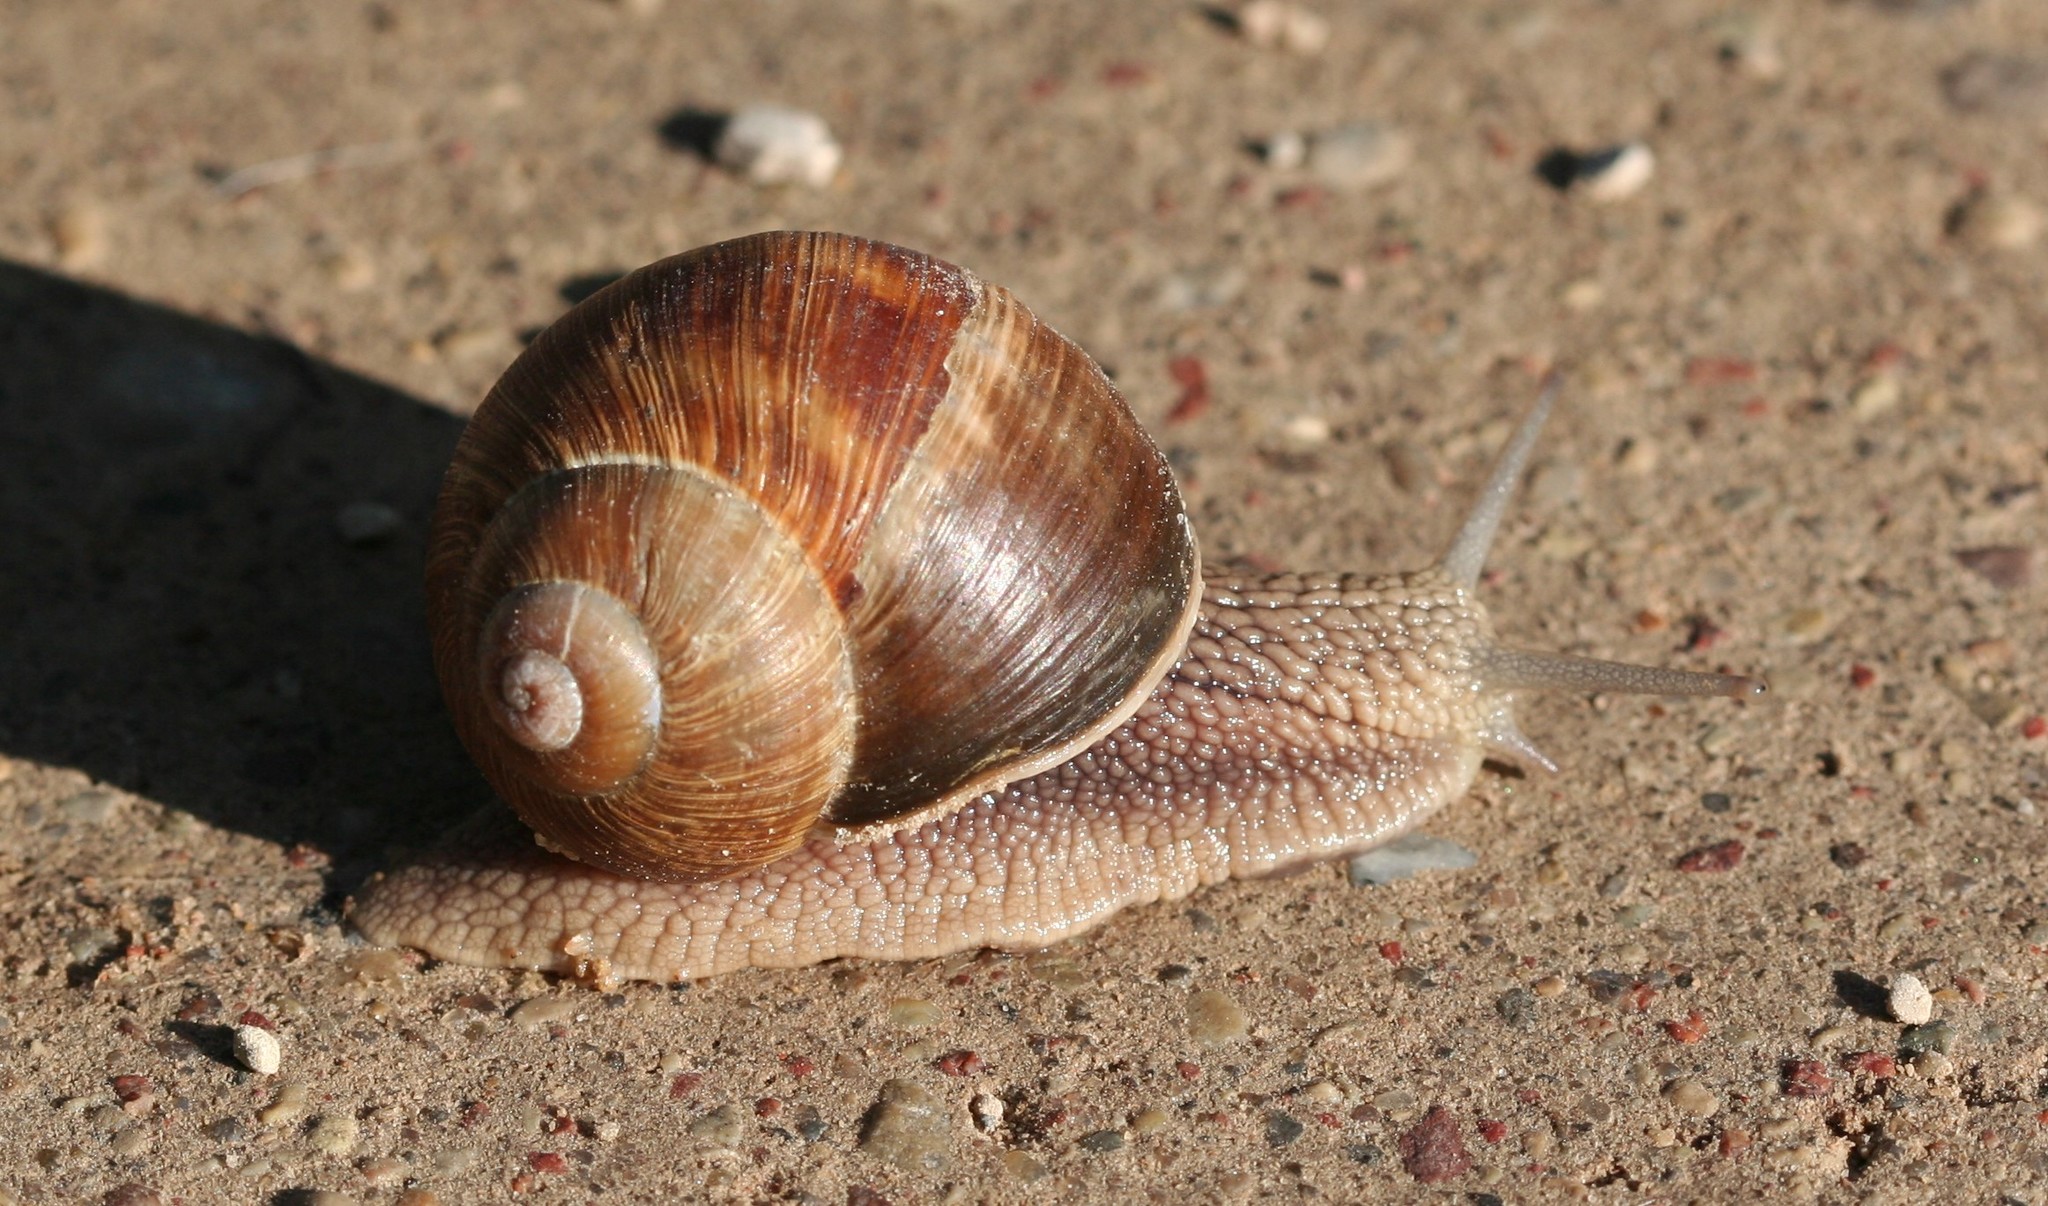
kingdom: Animalia
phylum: Mollusca
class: Gastropoda
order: Stylommatophora
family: Helicidae
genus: Helix
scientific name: Helix pomatia
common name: Roman snail
